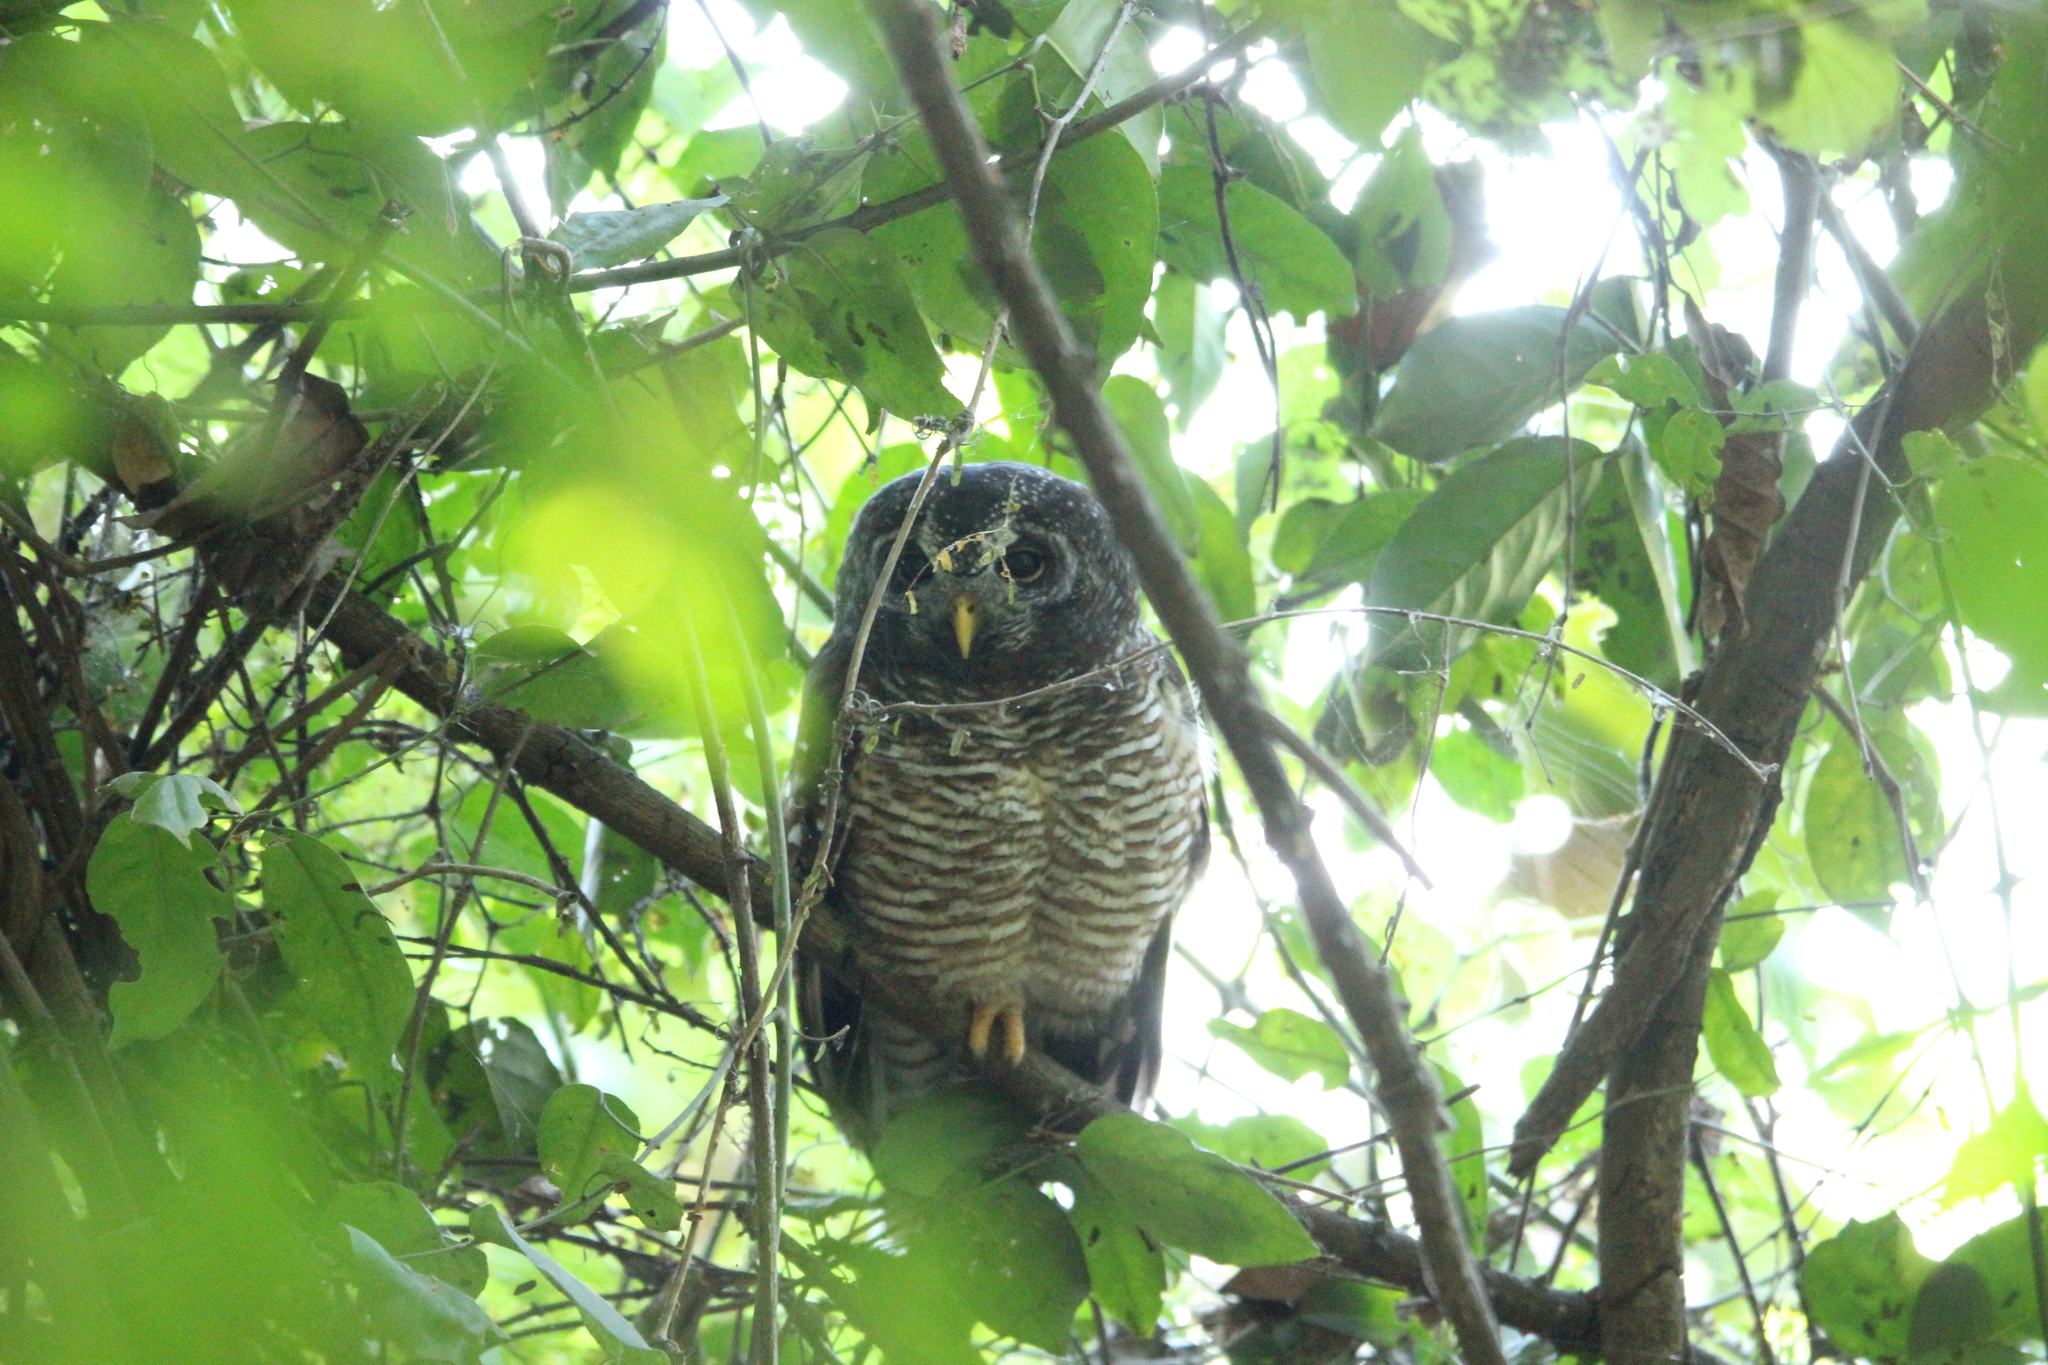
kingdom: Animalia
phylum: Chordata
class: Aves
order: Strigiformes
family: Strigidae
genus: Strix
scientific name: Strix woodfordii
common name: African wood owl
